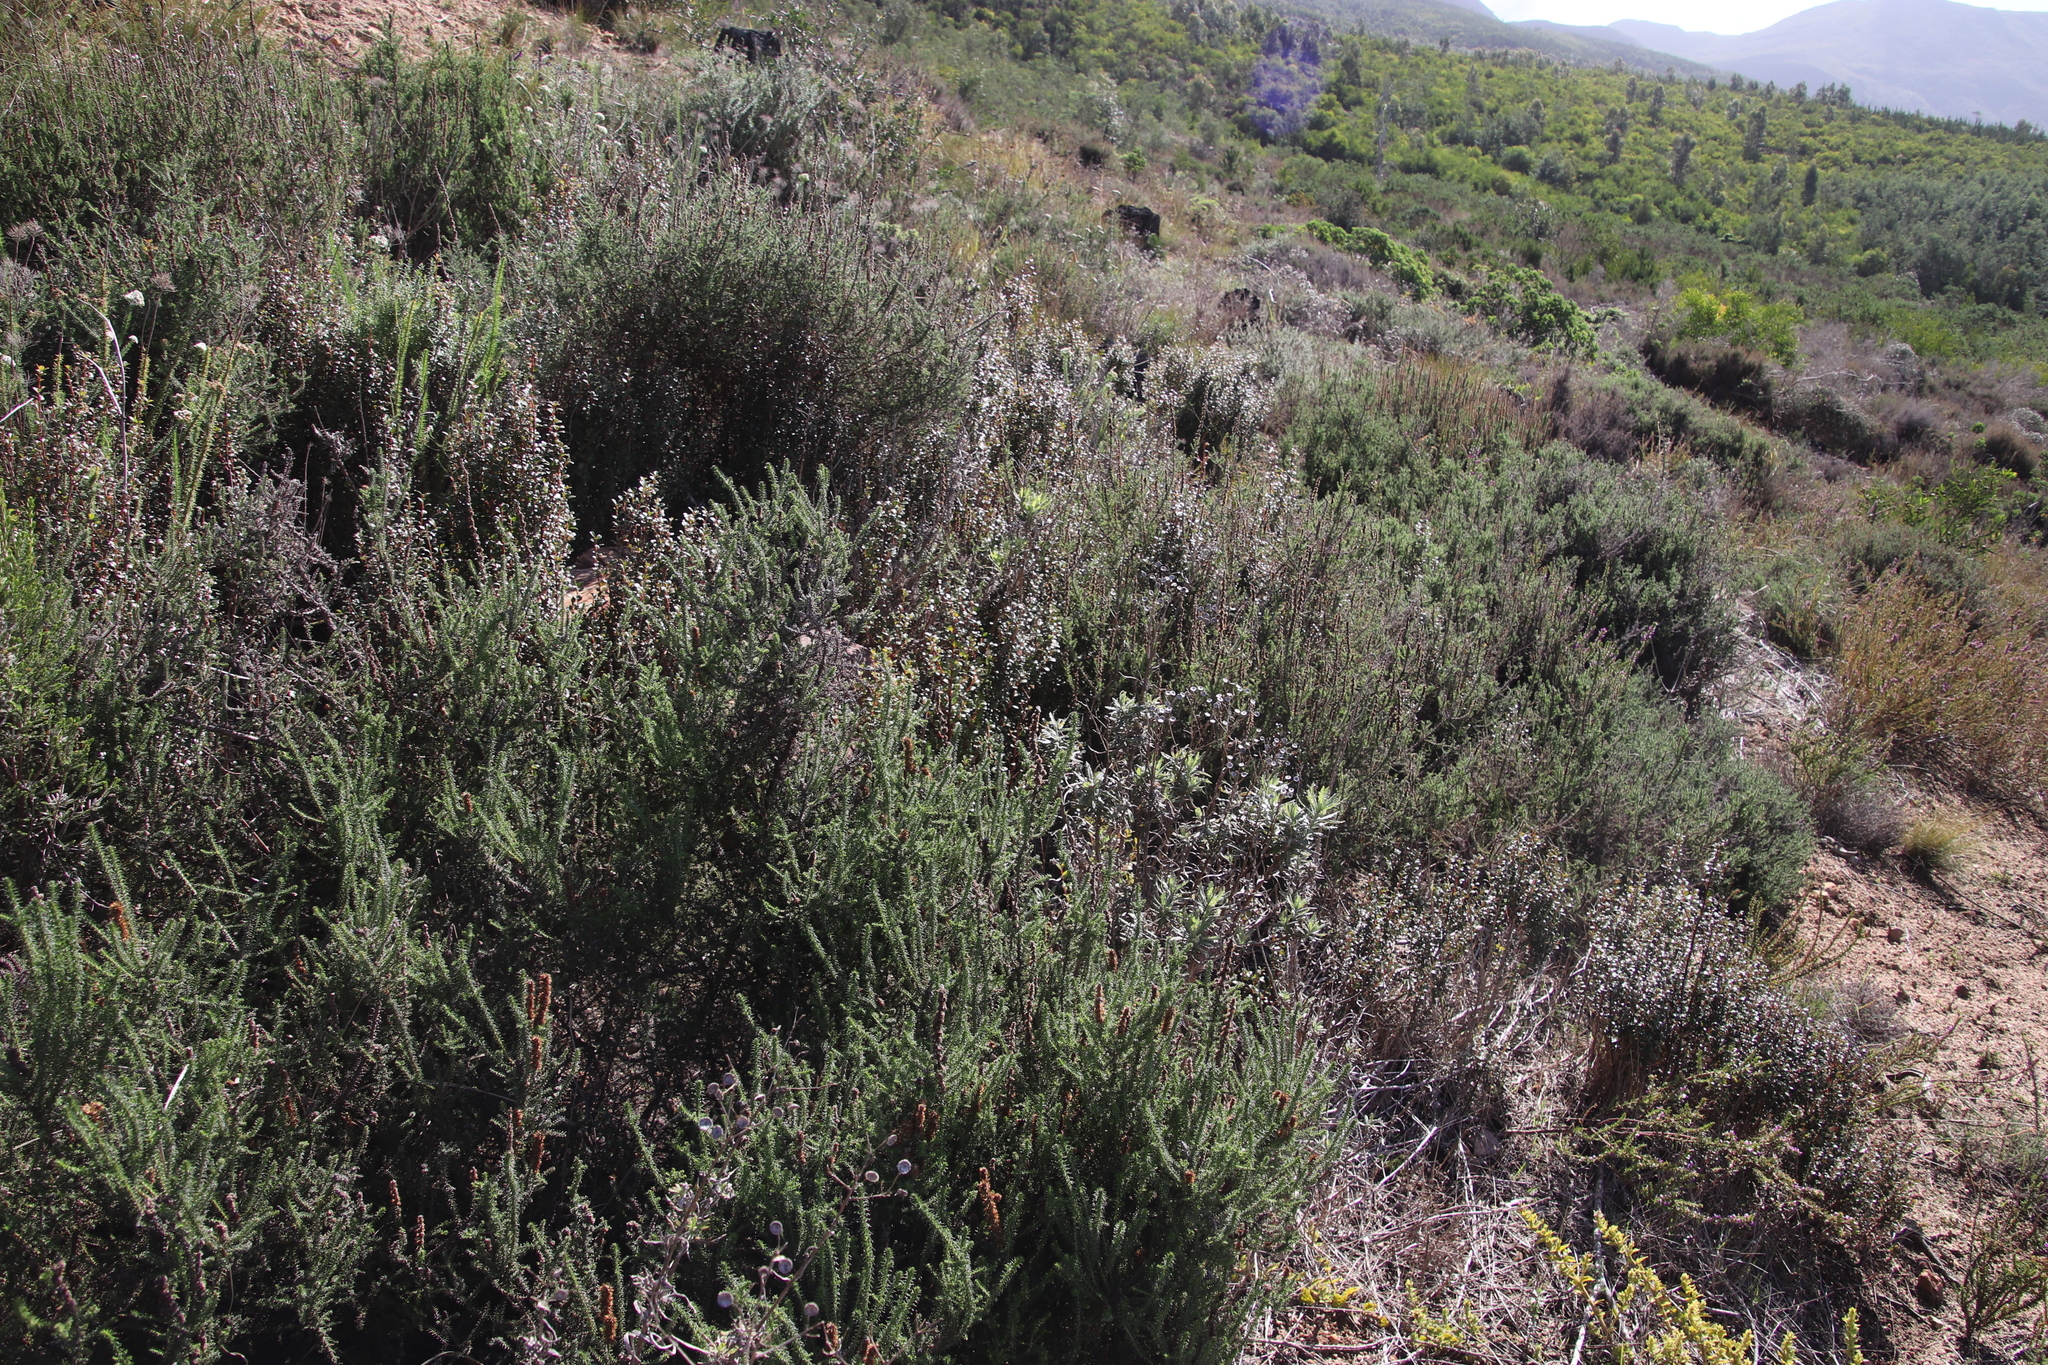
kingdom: Plantae
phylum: Tracheophyta
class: Magnoliopsida
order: Ericales
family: Primulaceae
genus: Myrsine
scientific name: Myrsine africana
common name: African-boxwood
